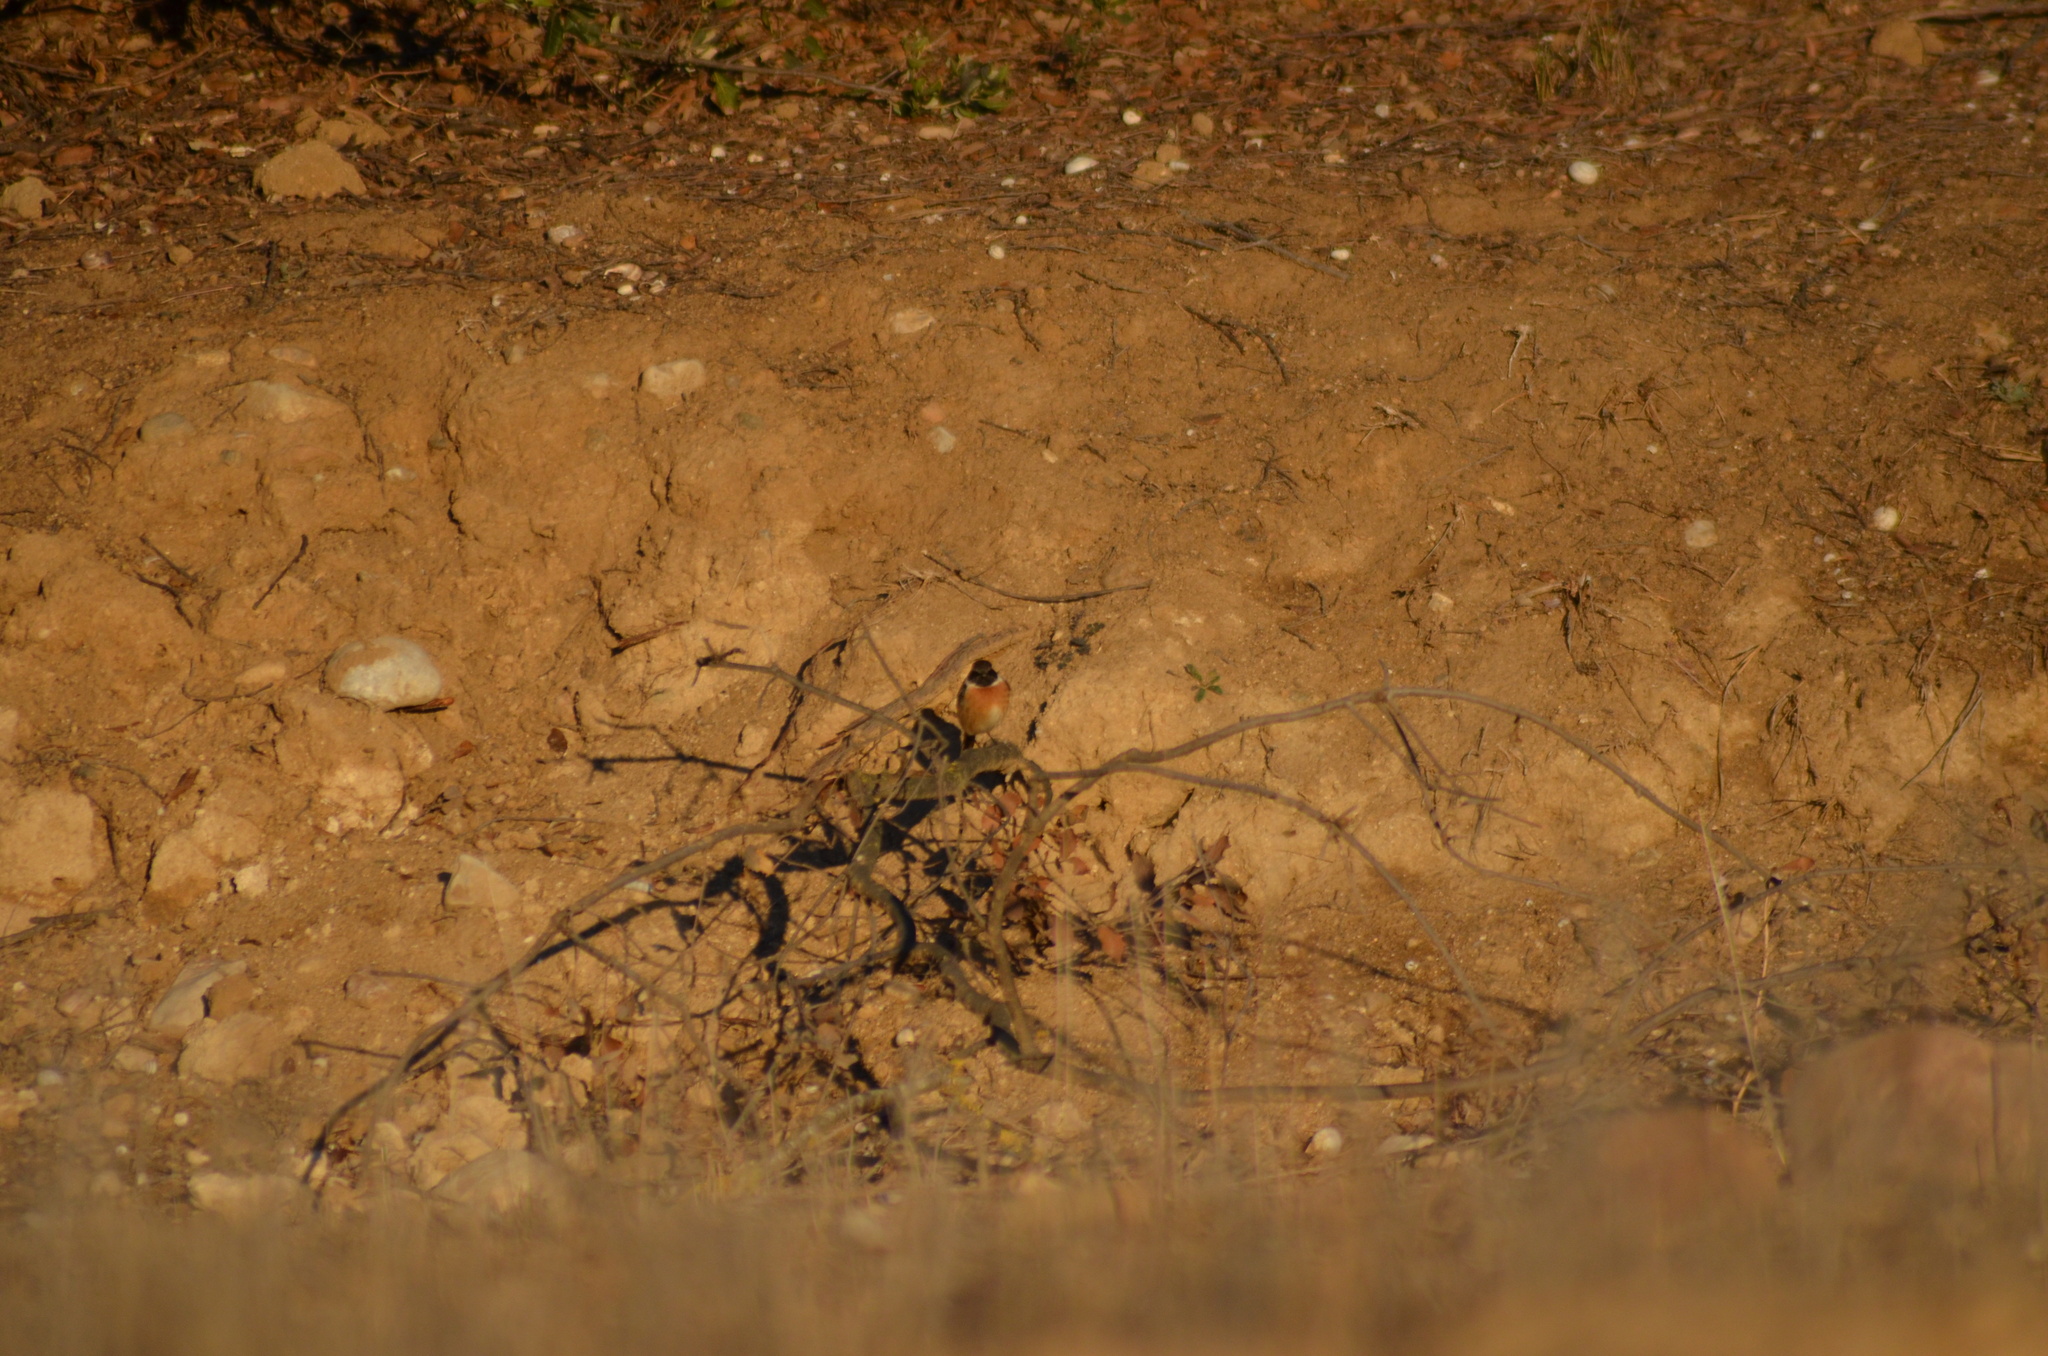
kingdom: Animalia
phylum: Chordata
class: Aves
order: Passeriformes
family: Muscicapidae
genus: Saxicola
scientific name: Saxicola rubicola
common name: European stonechat
